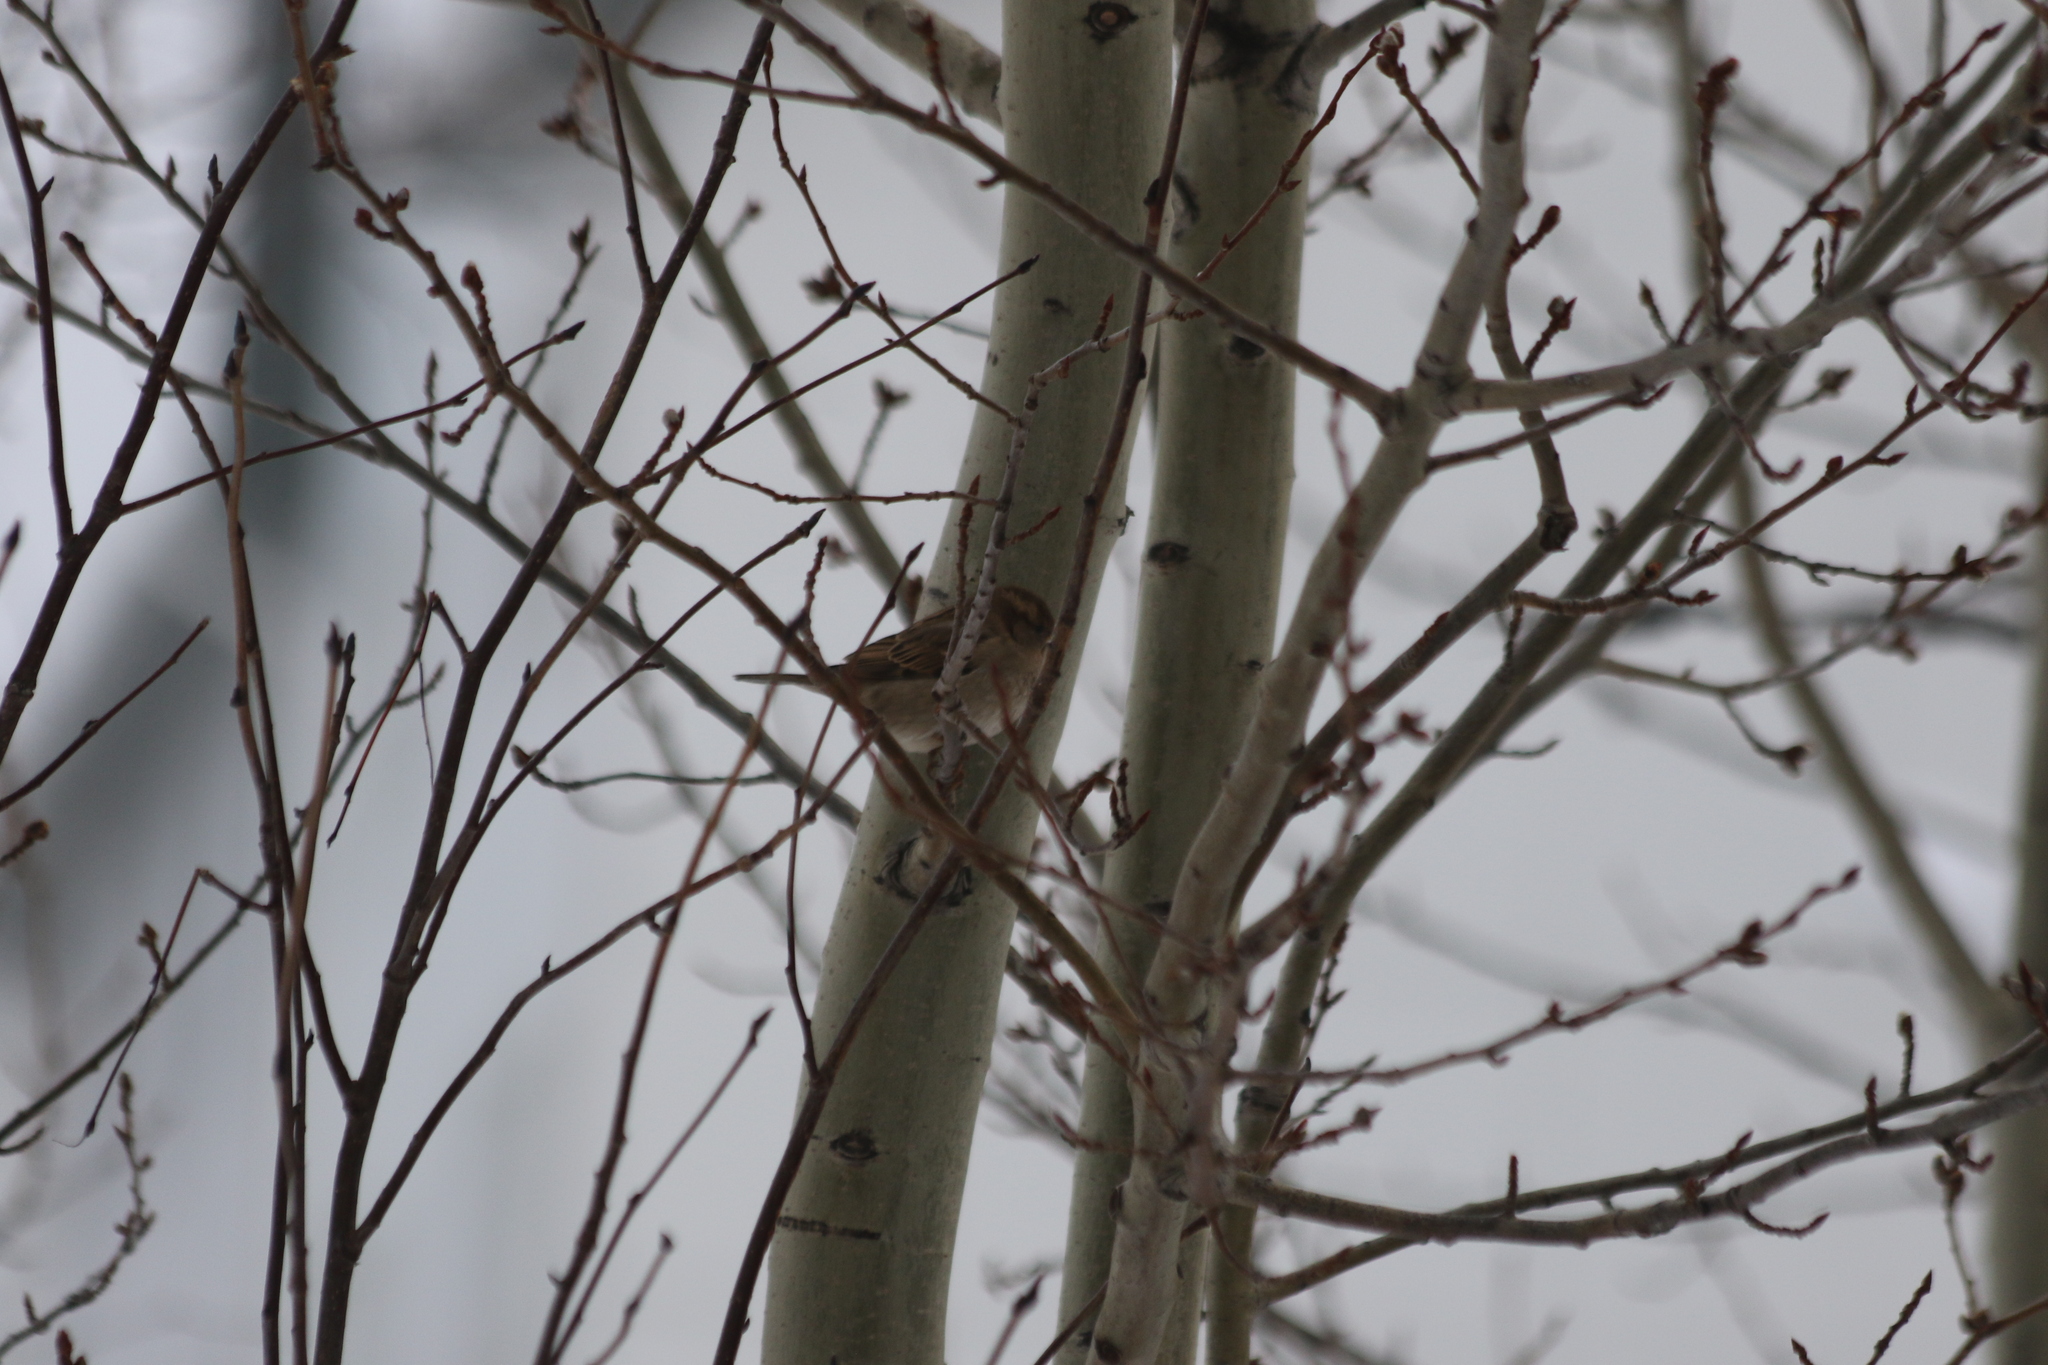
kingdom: Animalia
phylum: Chordata
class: Aves
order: Passeriformes
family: Passeridae
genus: Passer
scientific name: Passer domesticus
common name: House sparrow
